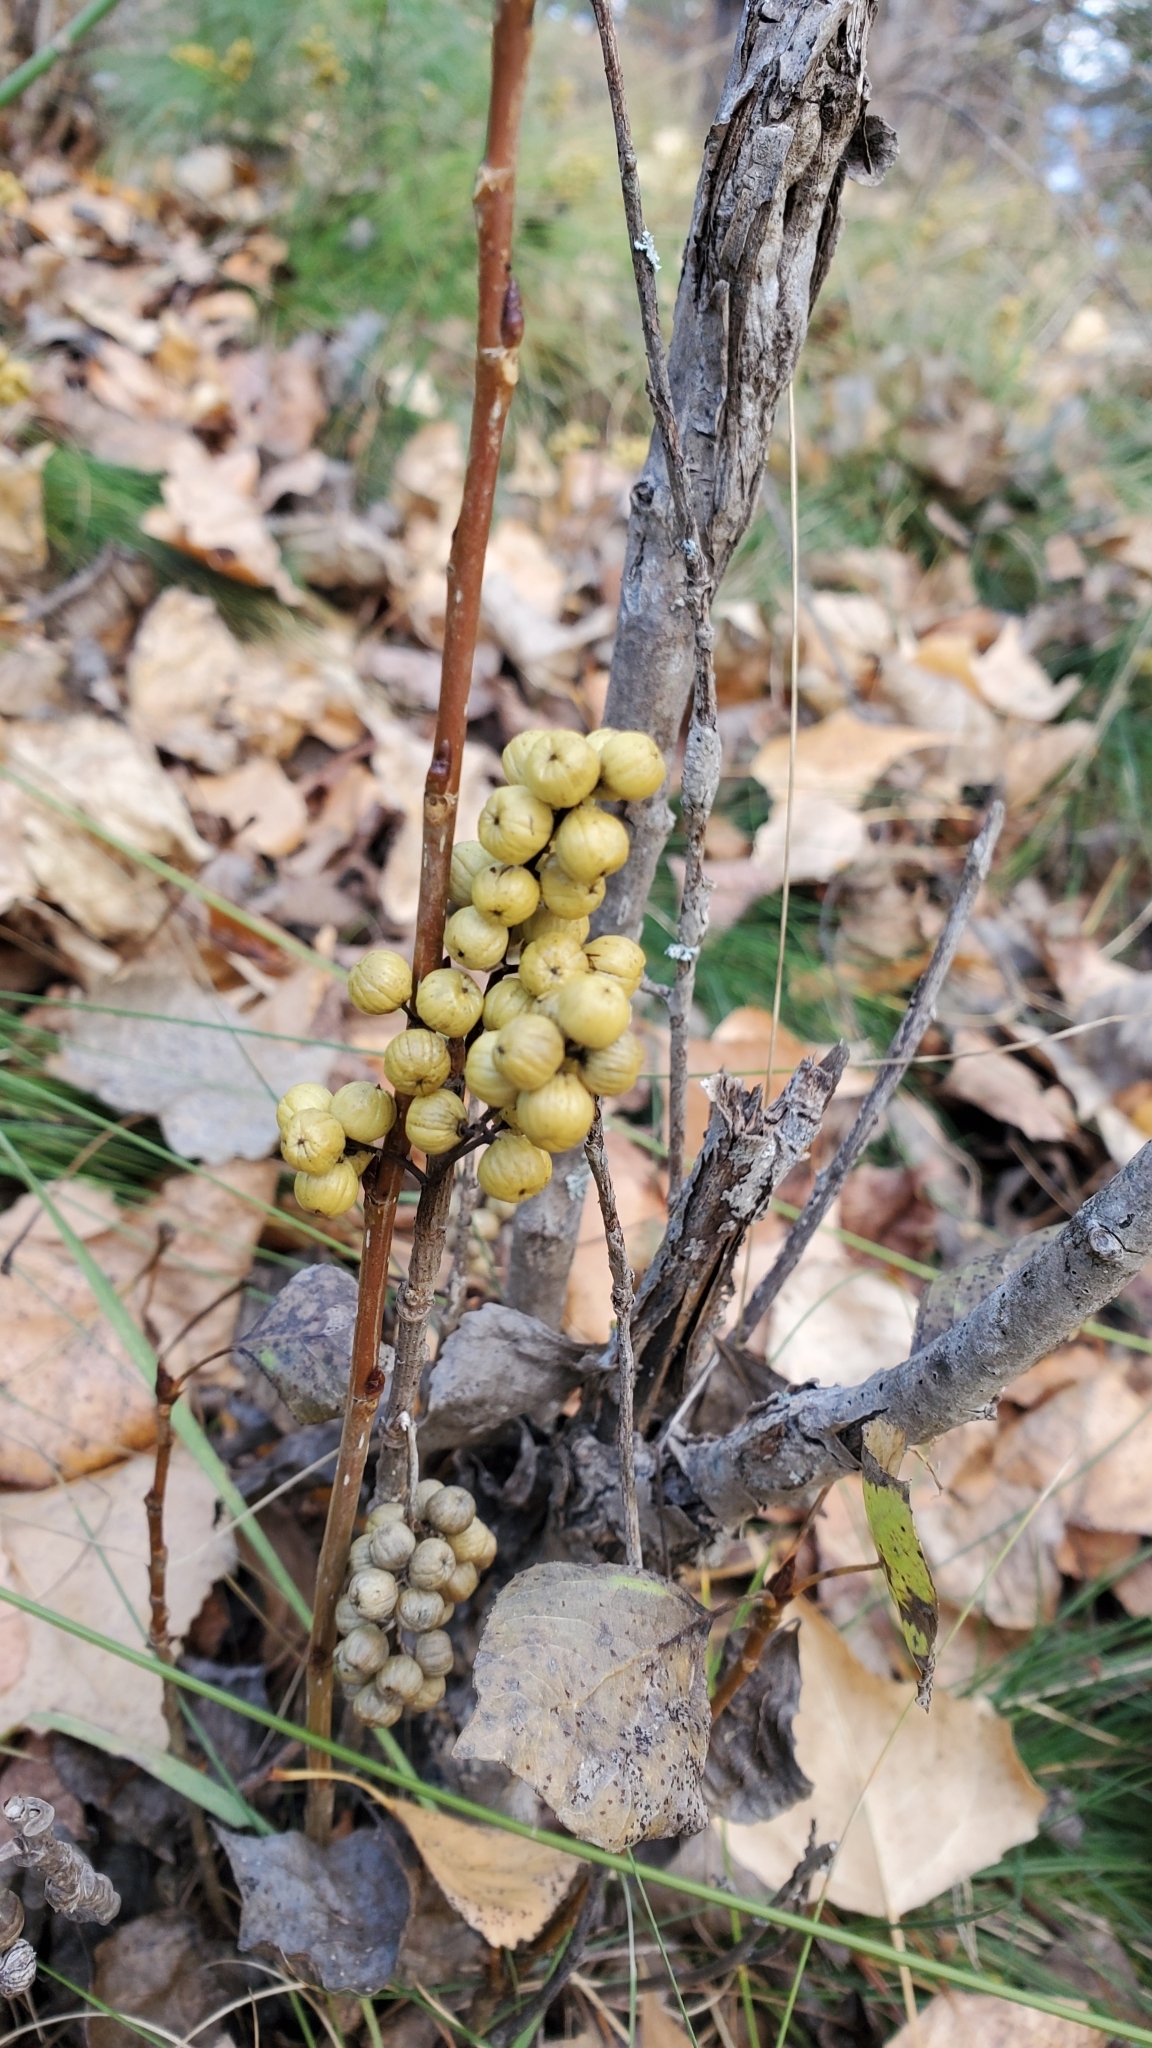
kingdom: Plantae
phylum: Tracheophyta
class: Magnoliopsida
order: Sapindales
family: Anacardiaceae
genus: Toxicodendron
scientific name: Toxicodendron rydbergii
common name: Rydberg's poison-ivy
